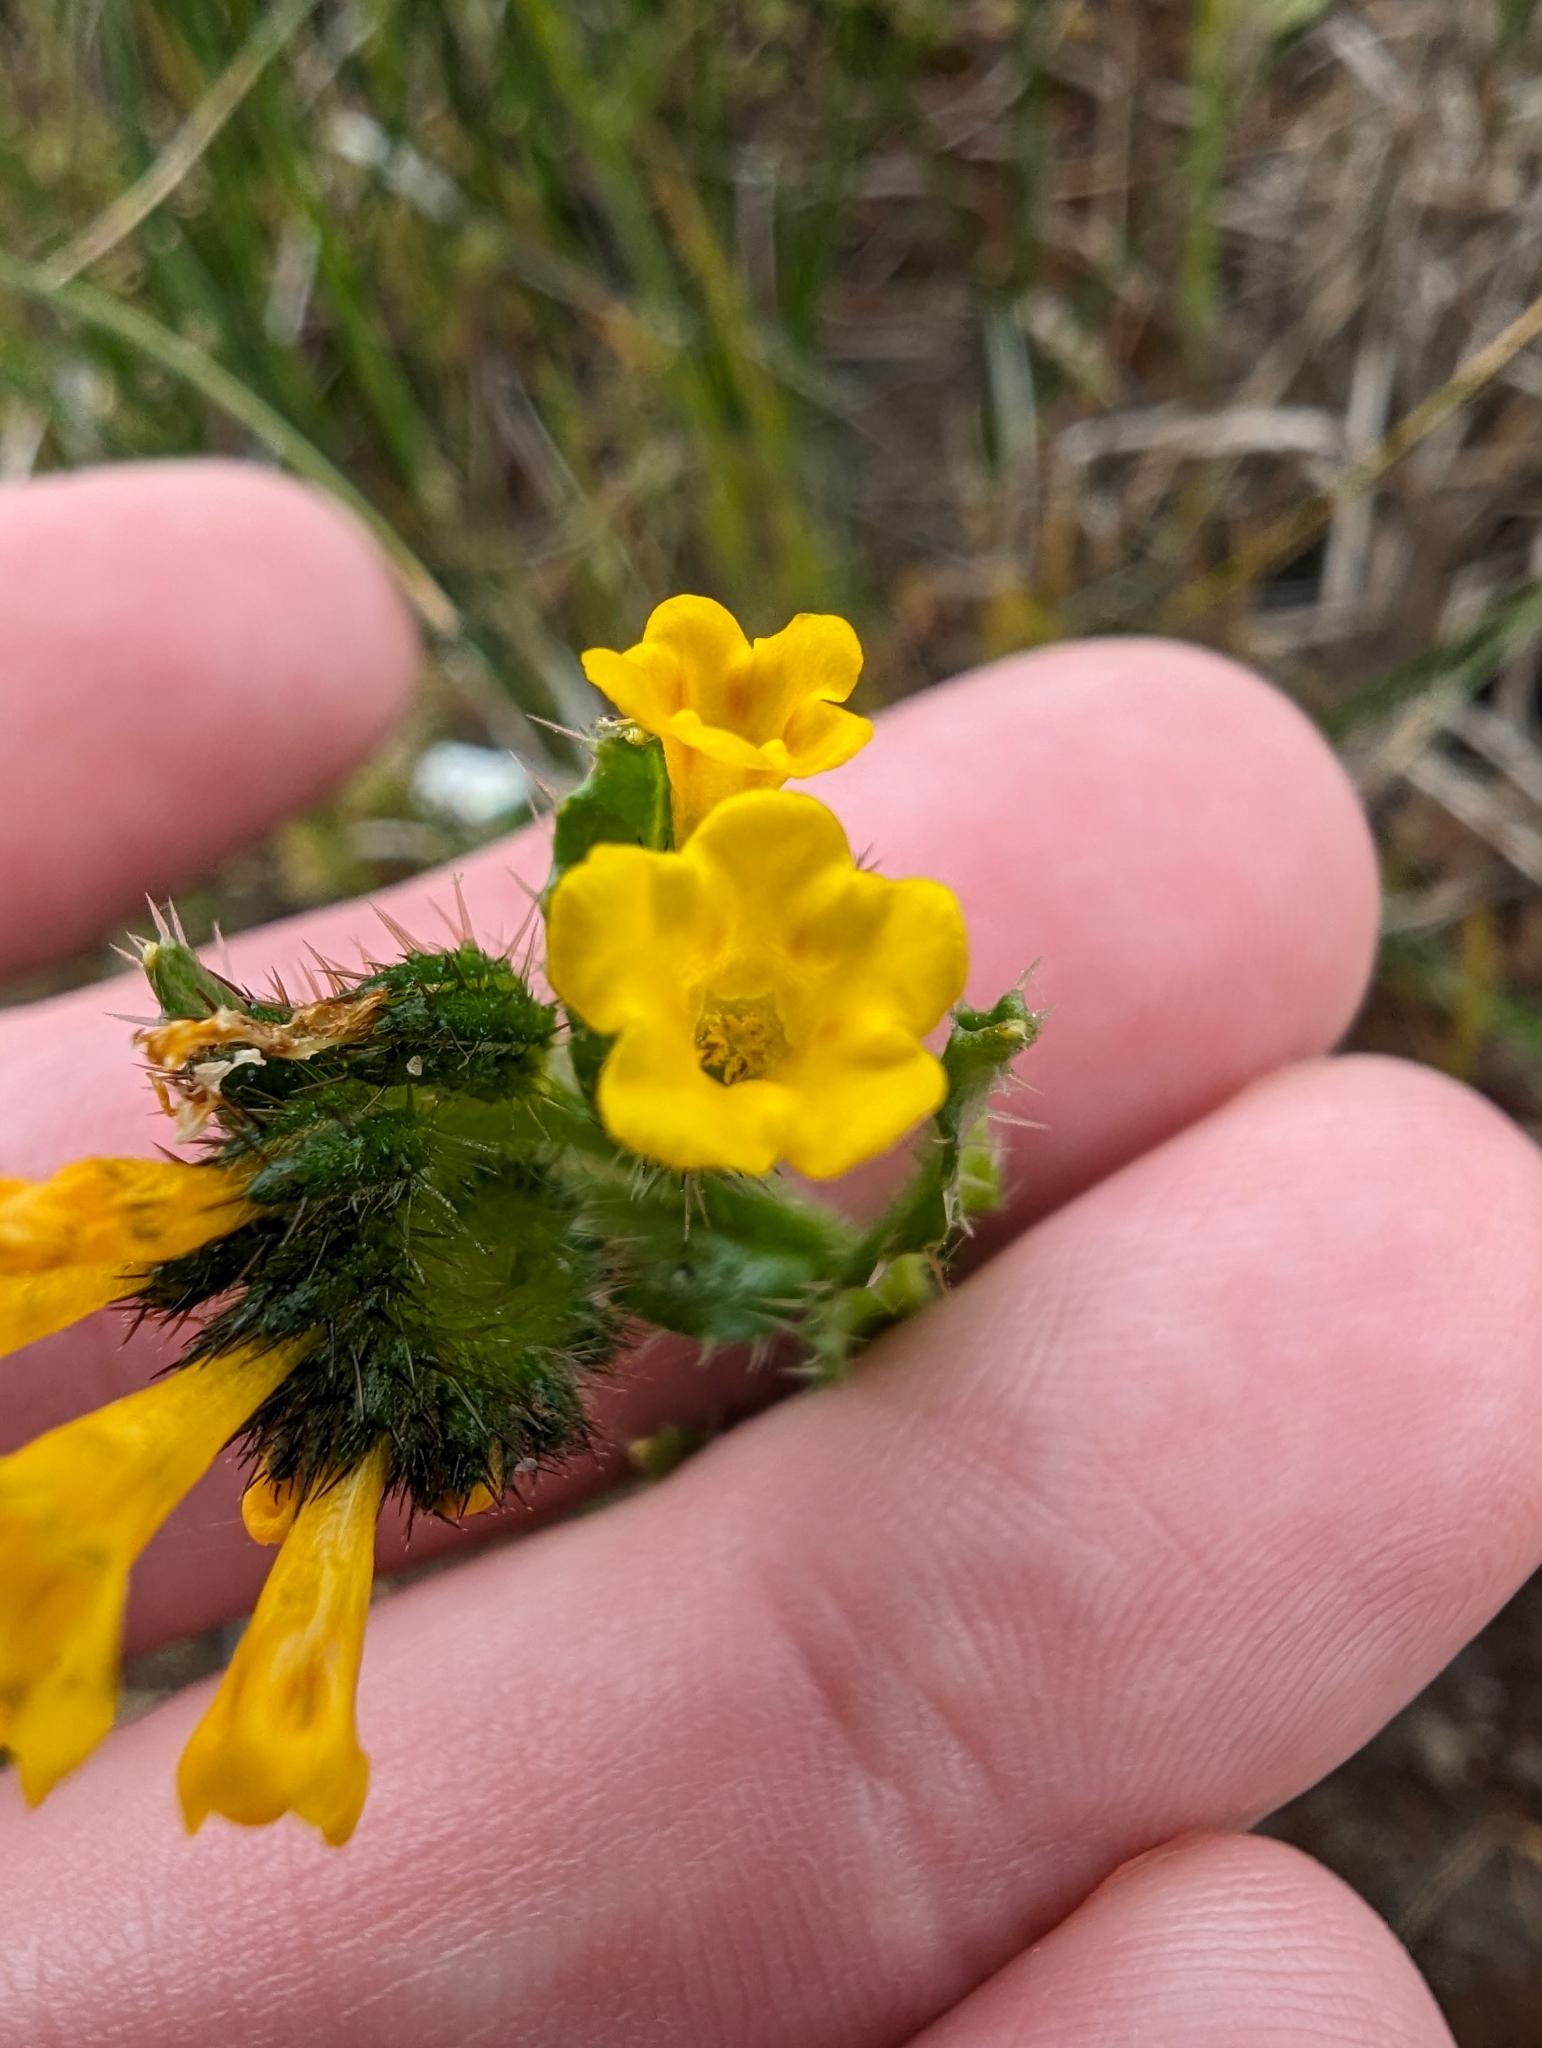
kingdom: Plantae
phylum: Tracheophyta
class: Magnoliopsida
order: Boraginales
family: Boraginaceae
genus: Amsinckia
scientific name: Amsinckia spectabilis
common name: Seaside fiddleneck
